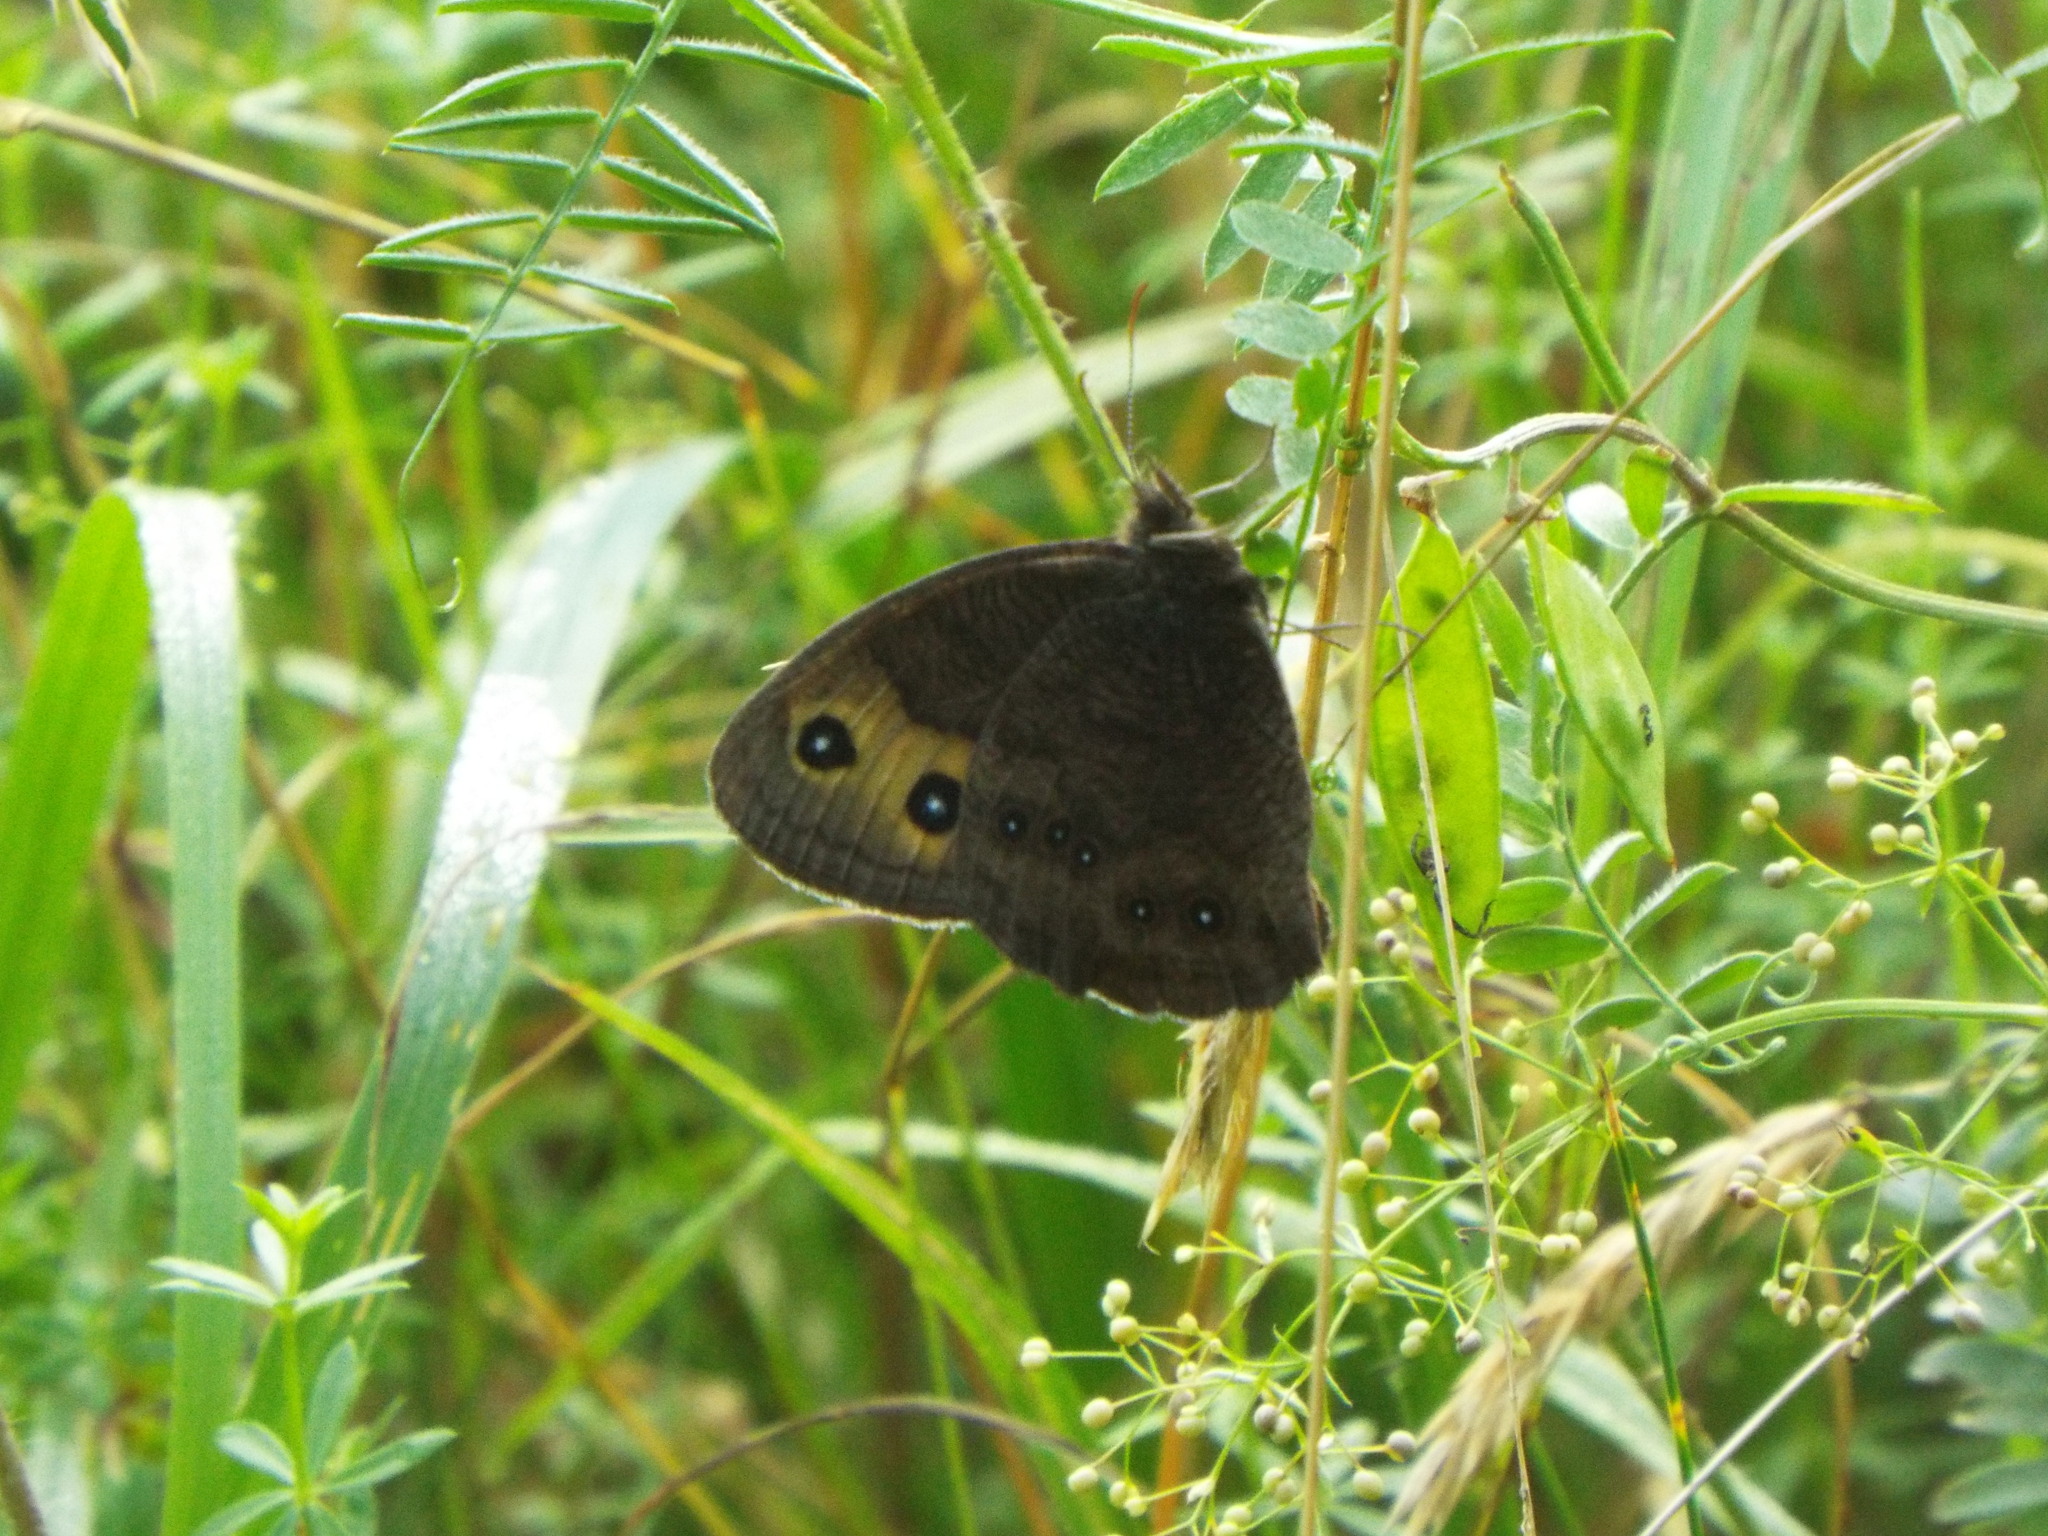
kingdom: Animalia
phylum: Arthropoda
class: Insecta
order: Lepidoptera
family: Nymphalidae
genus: Cercyonis
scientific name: Cercyonis pegala
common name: Common wood-nymph
